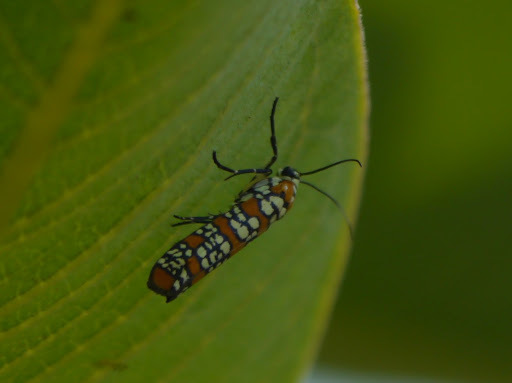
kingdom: Animalia
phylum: Arthropoda
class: Insecta
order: Lepidoptera
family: Attevidae
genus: Atteva
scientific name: Atteva punctella
